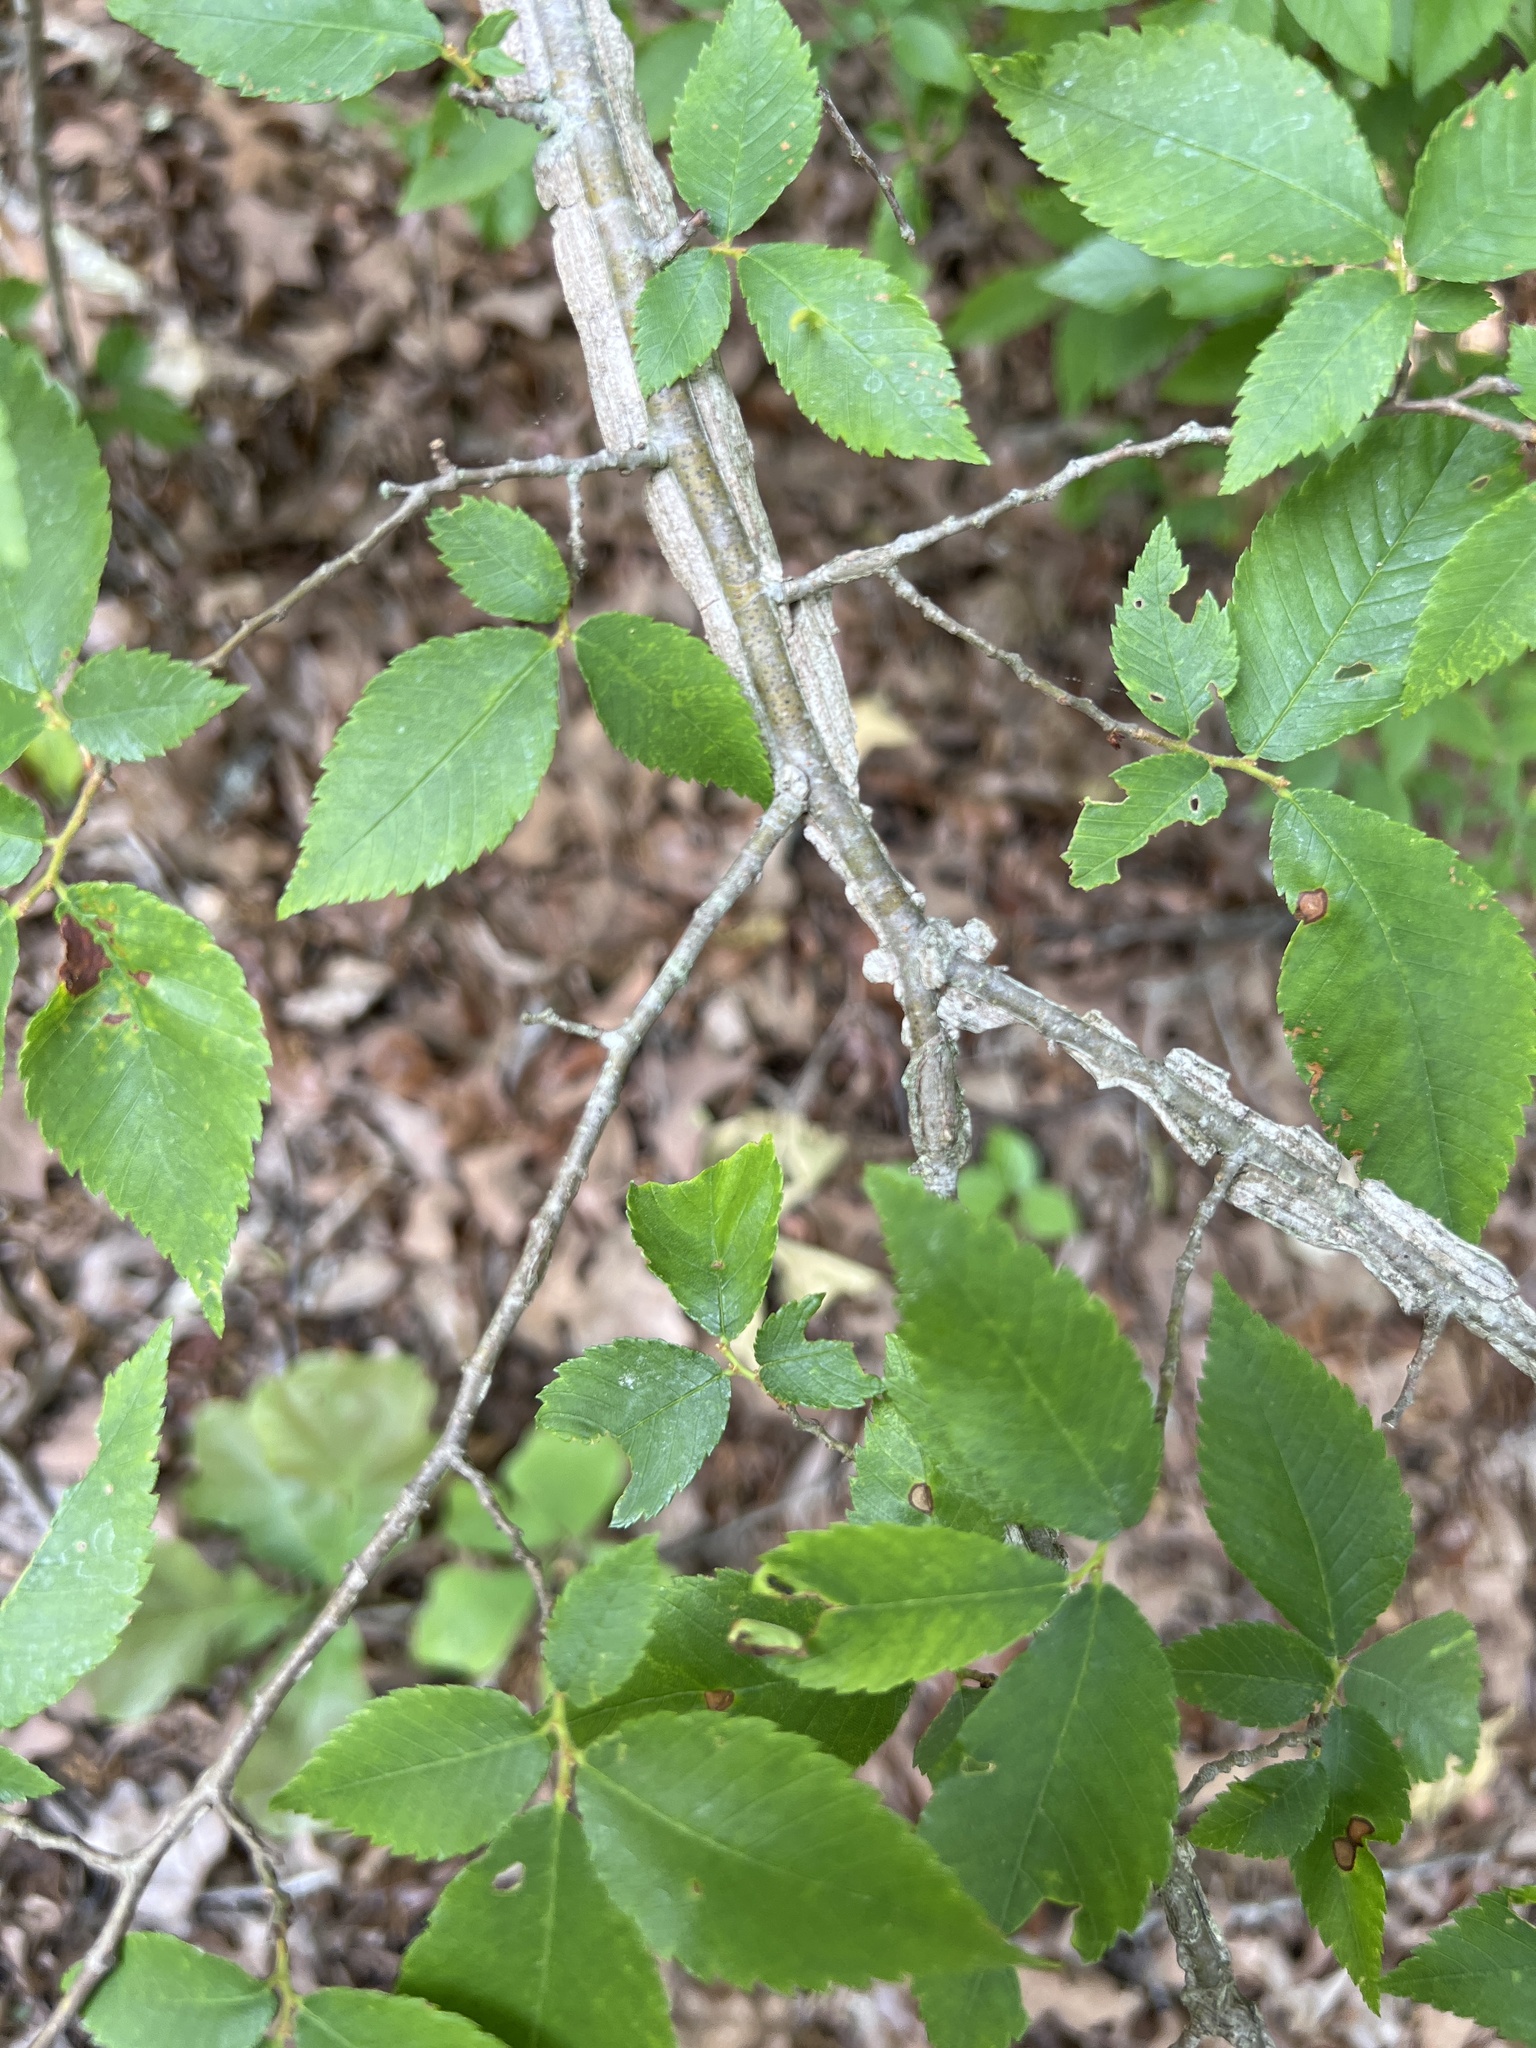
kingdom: Plantae
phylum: Tracheophyta
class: Magnoliopsida
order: Rosales
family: Ulmaceae
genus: Ulmus
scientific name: Ulmus alata
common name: Winged elm
